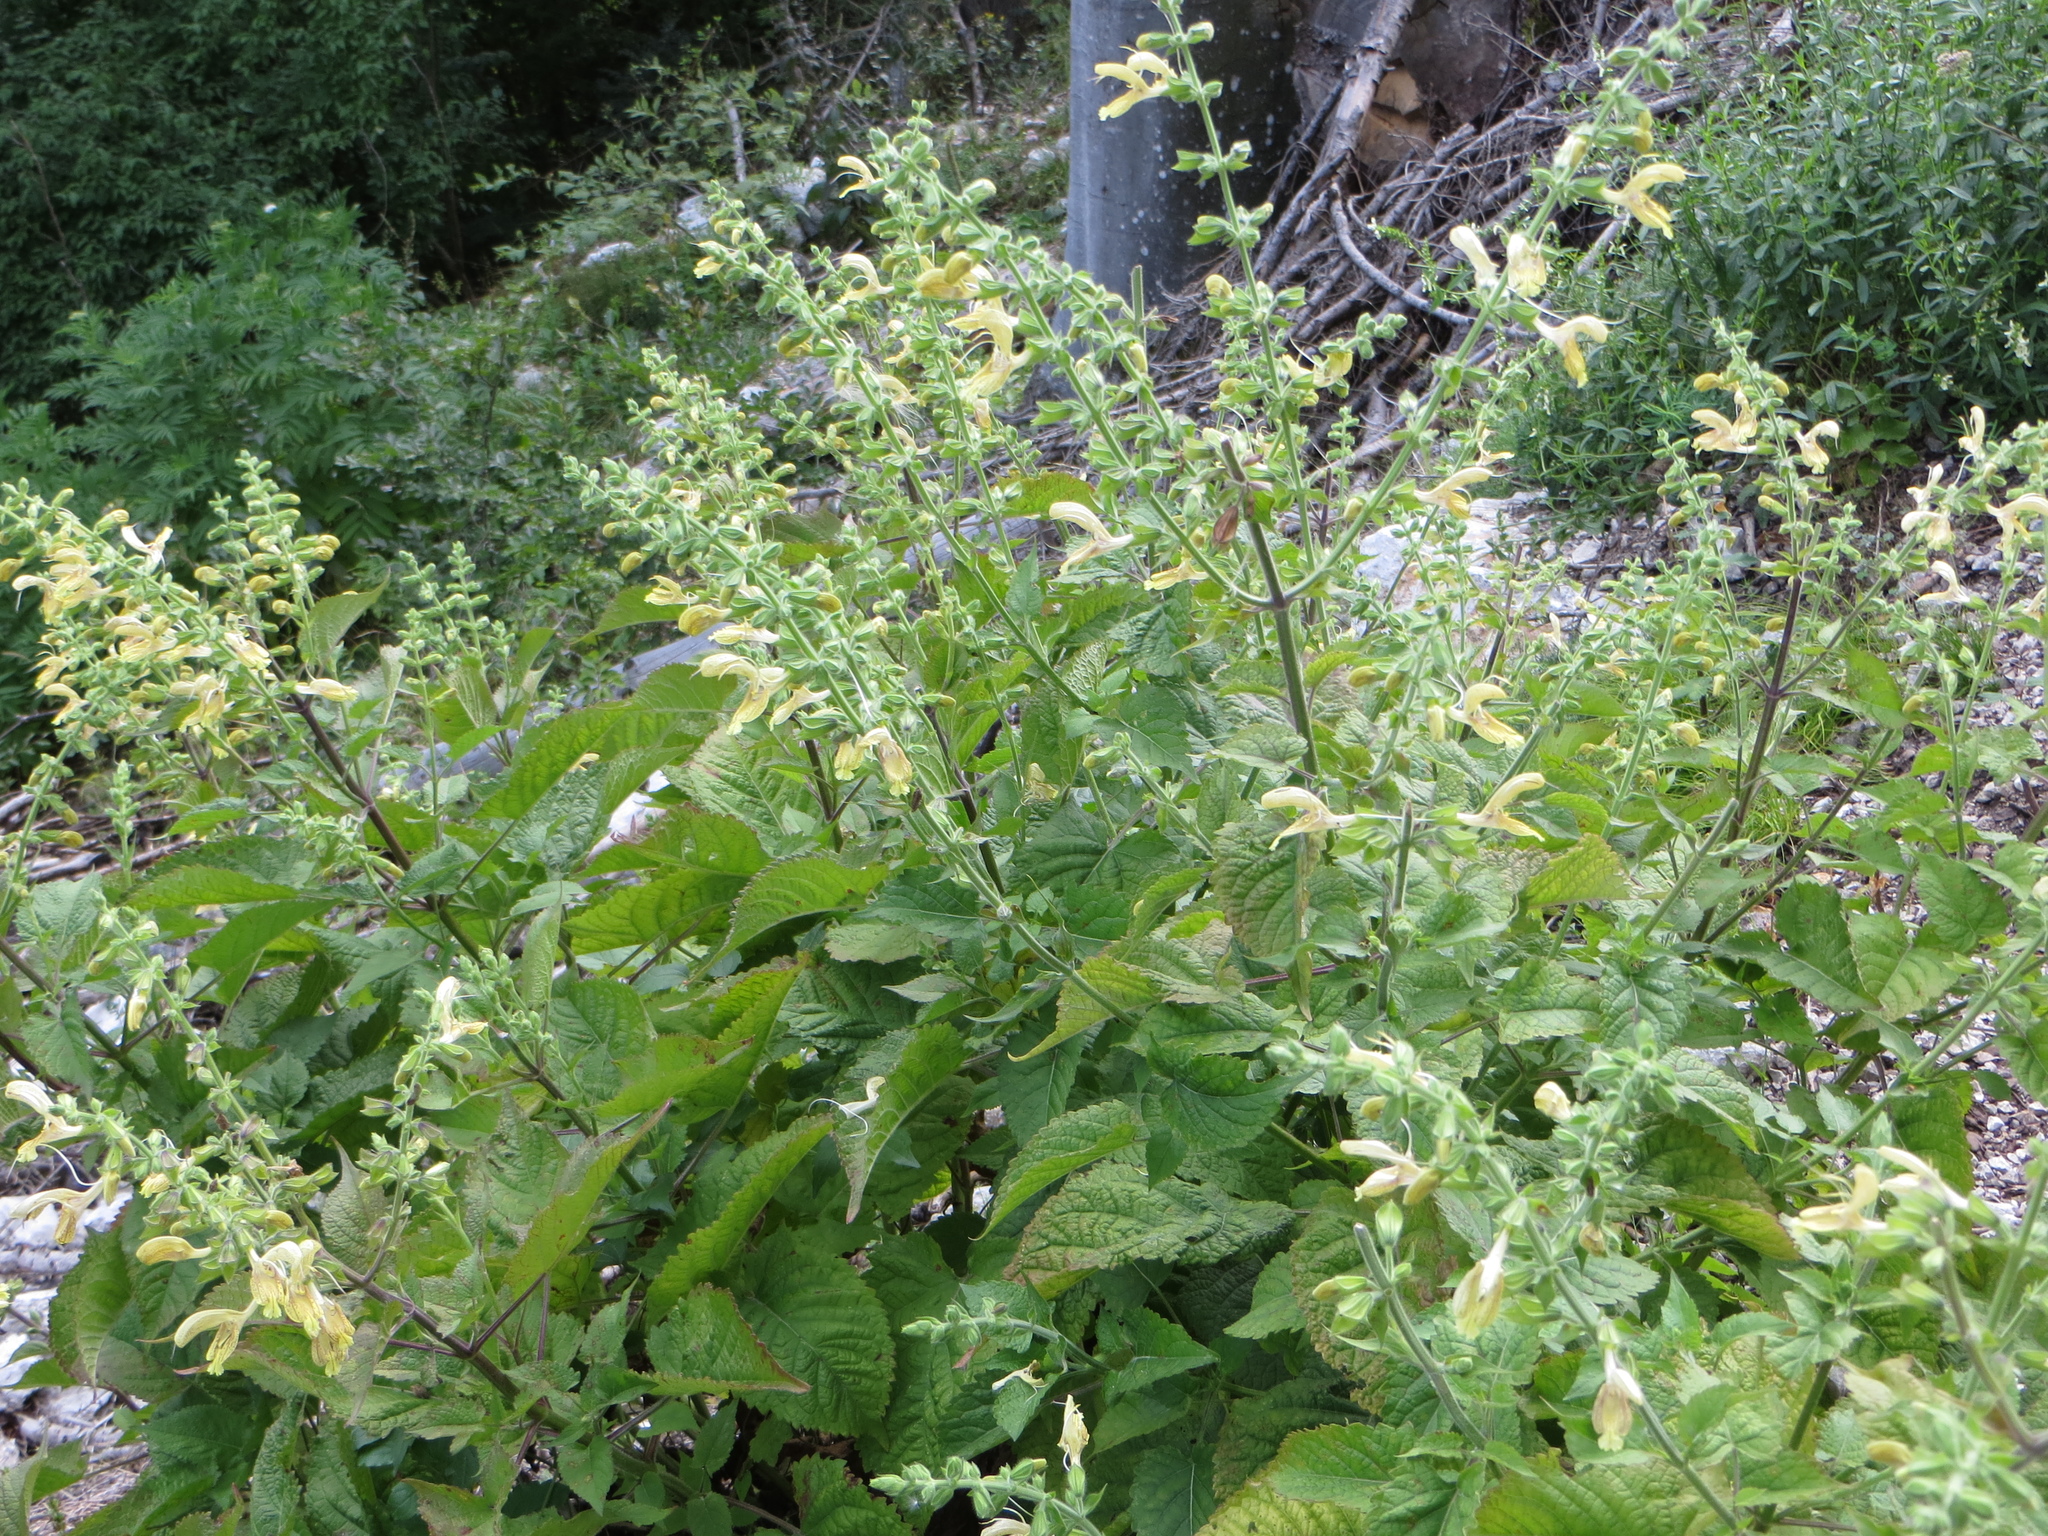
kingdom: Plantae
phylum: Tracheophyta
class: Magnoliopsida
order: Lamiales
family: Lamiaceae
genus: Salvia
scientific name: Salvia glutinosa
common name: Sticky clary
